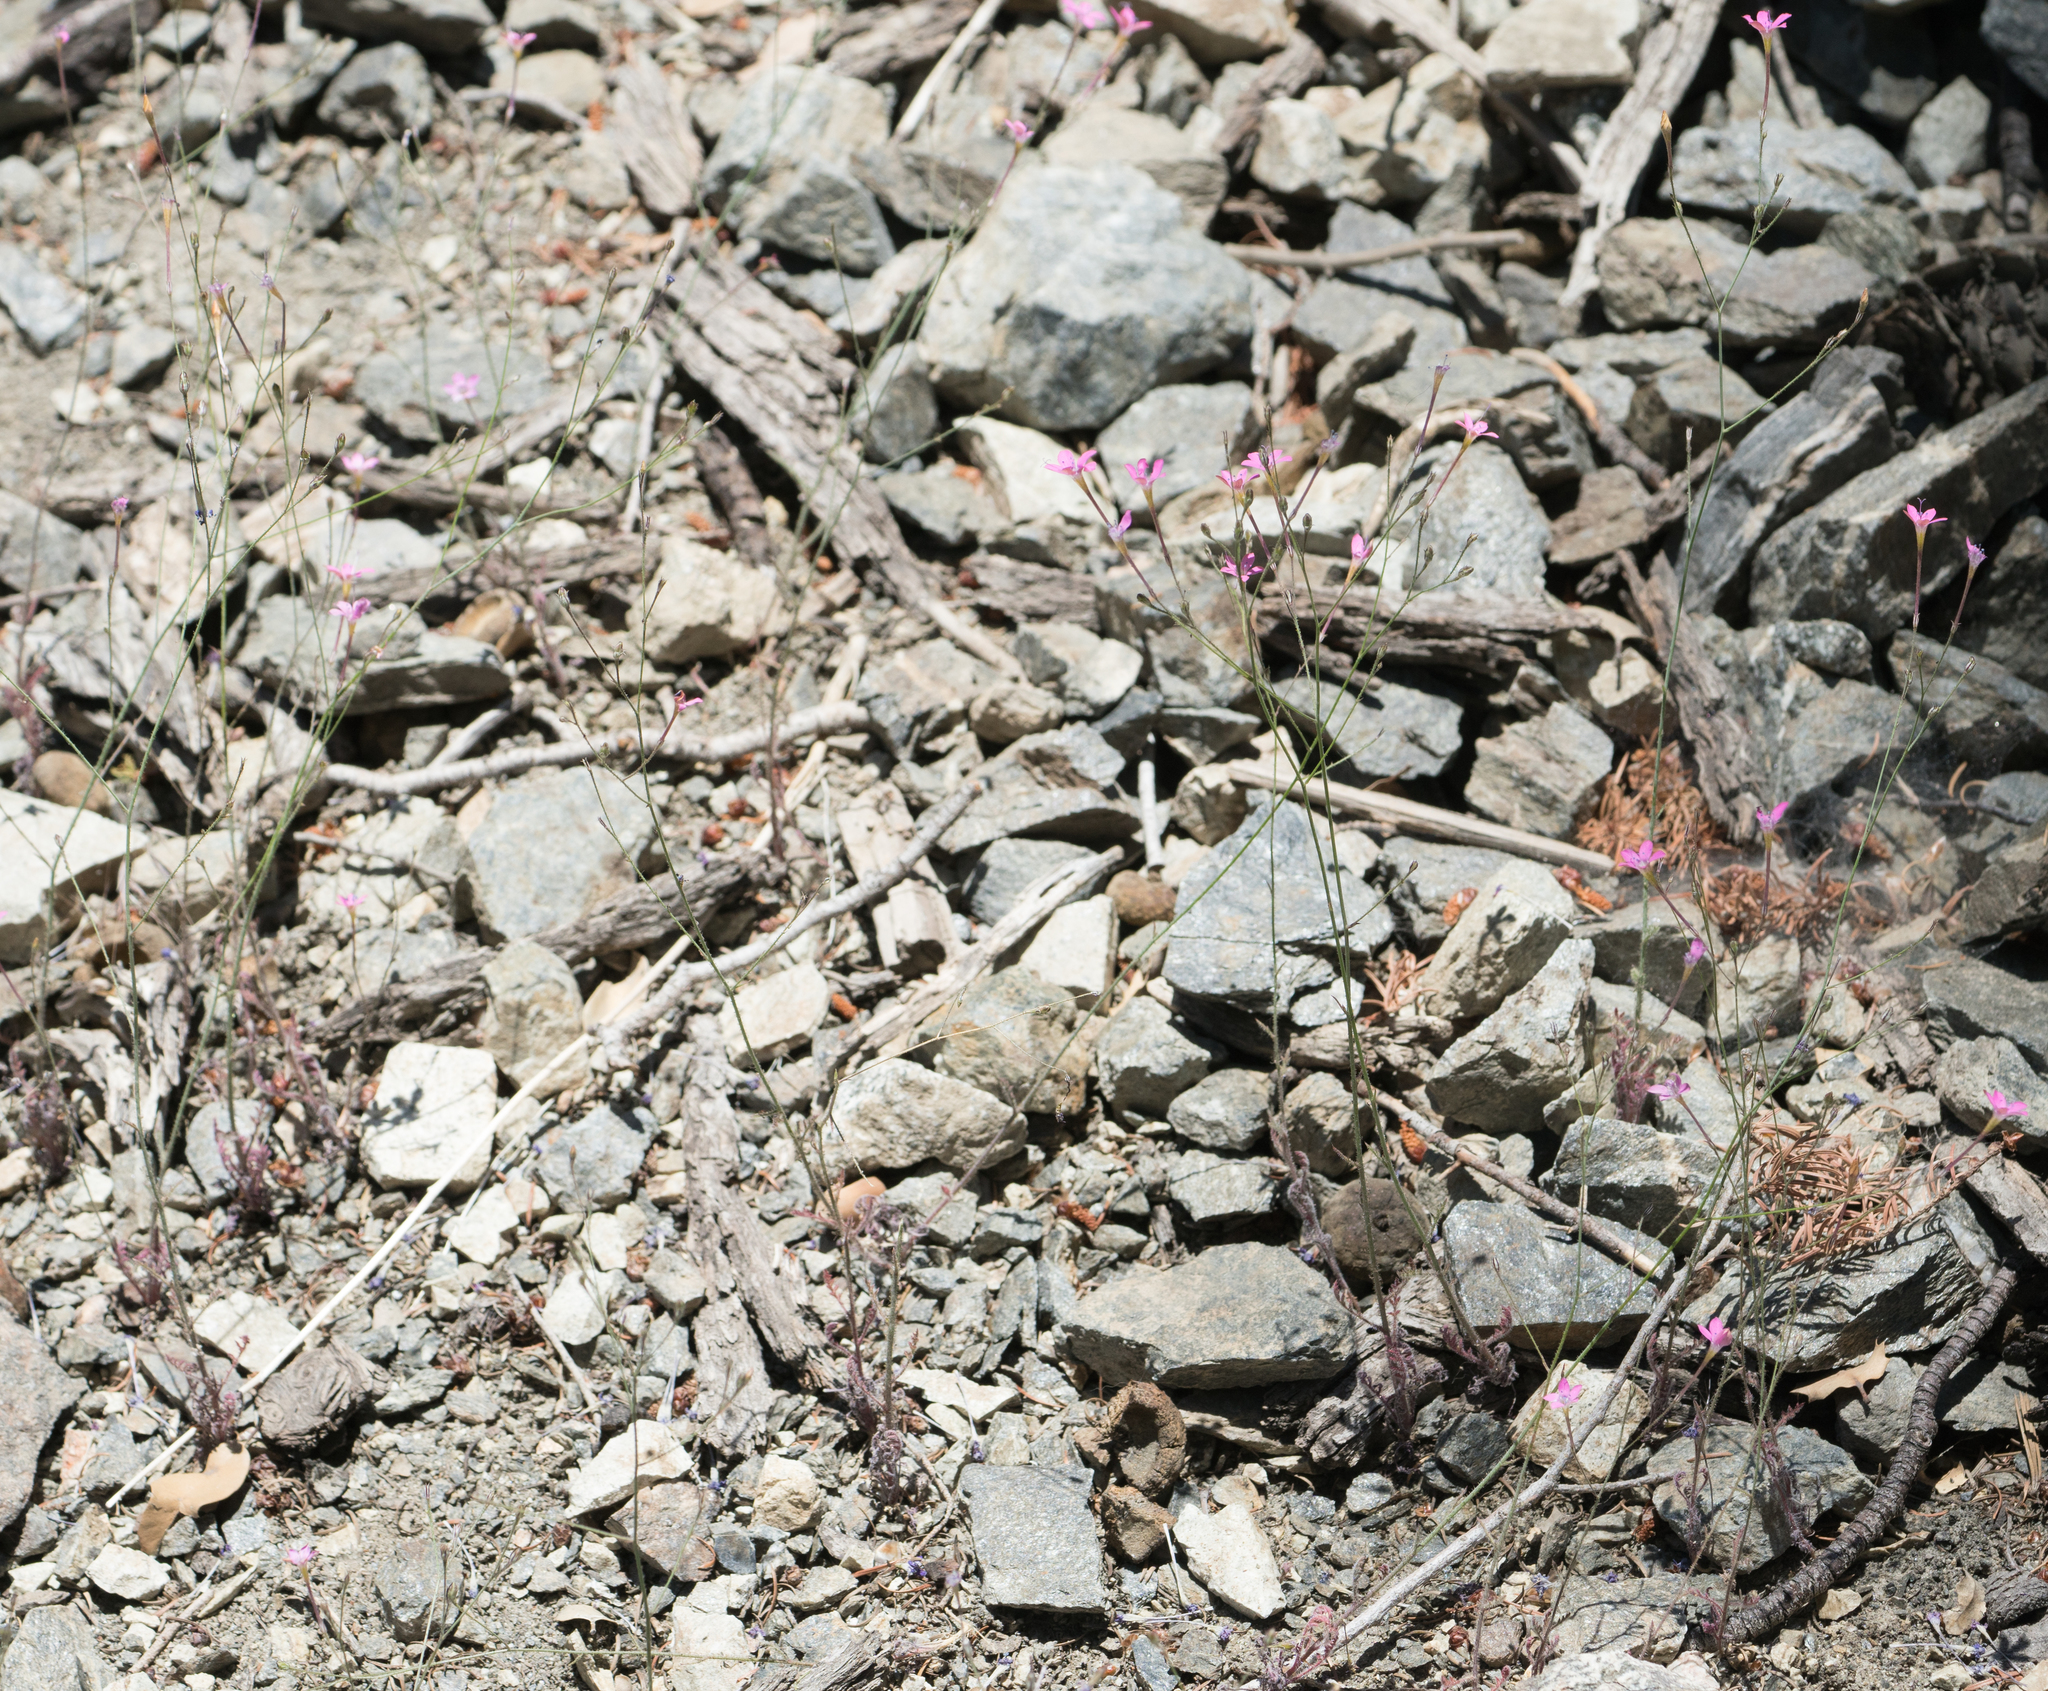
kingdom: Plantae
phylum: Tracheophyta
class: Magnoliopsida
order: Ericales
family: Polemoniaceae
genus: Saltugilia
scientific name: Saltugilia splendens
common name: Grinnell's gilia
